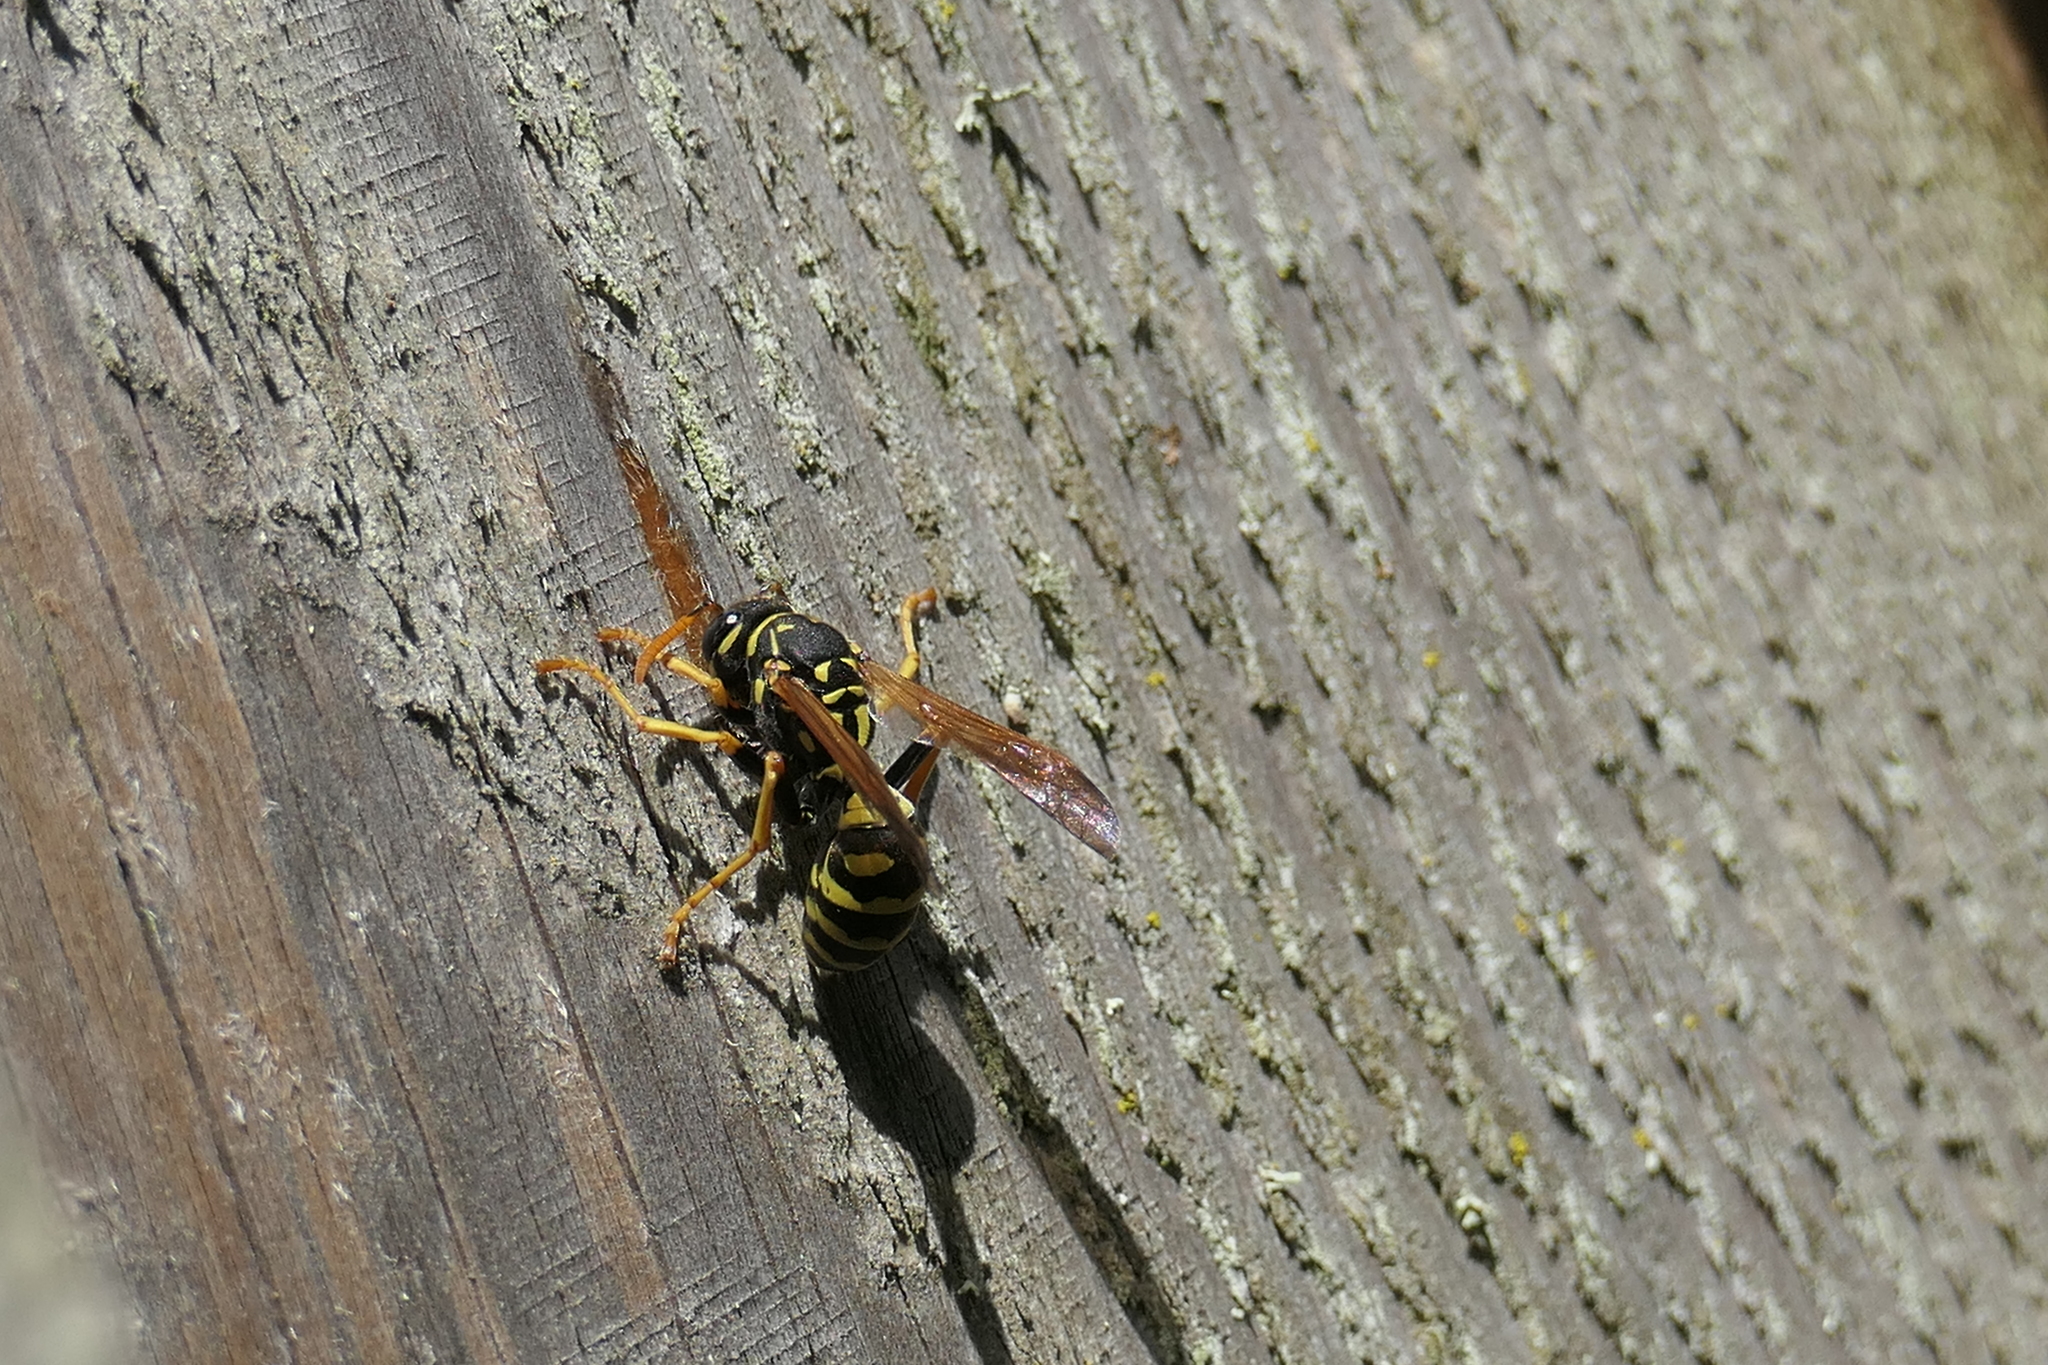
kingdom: Animalia
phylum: Arthropoda
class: Insecta
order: Hymenoptera
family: Eumenidae
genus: Polistes
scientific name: Polistes dominula
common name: Paper wasp
